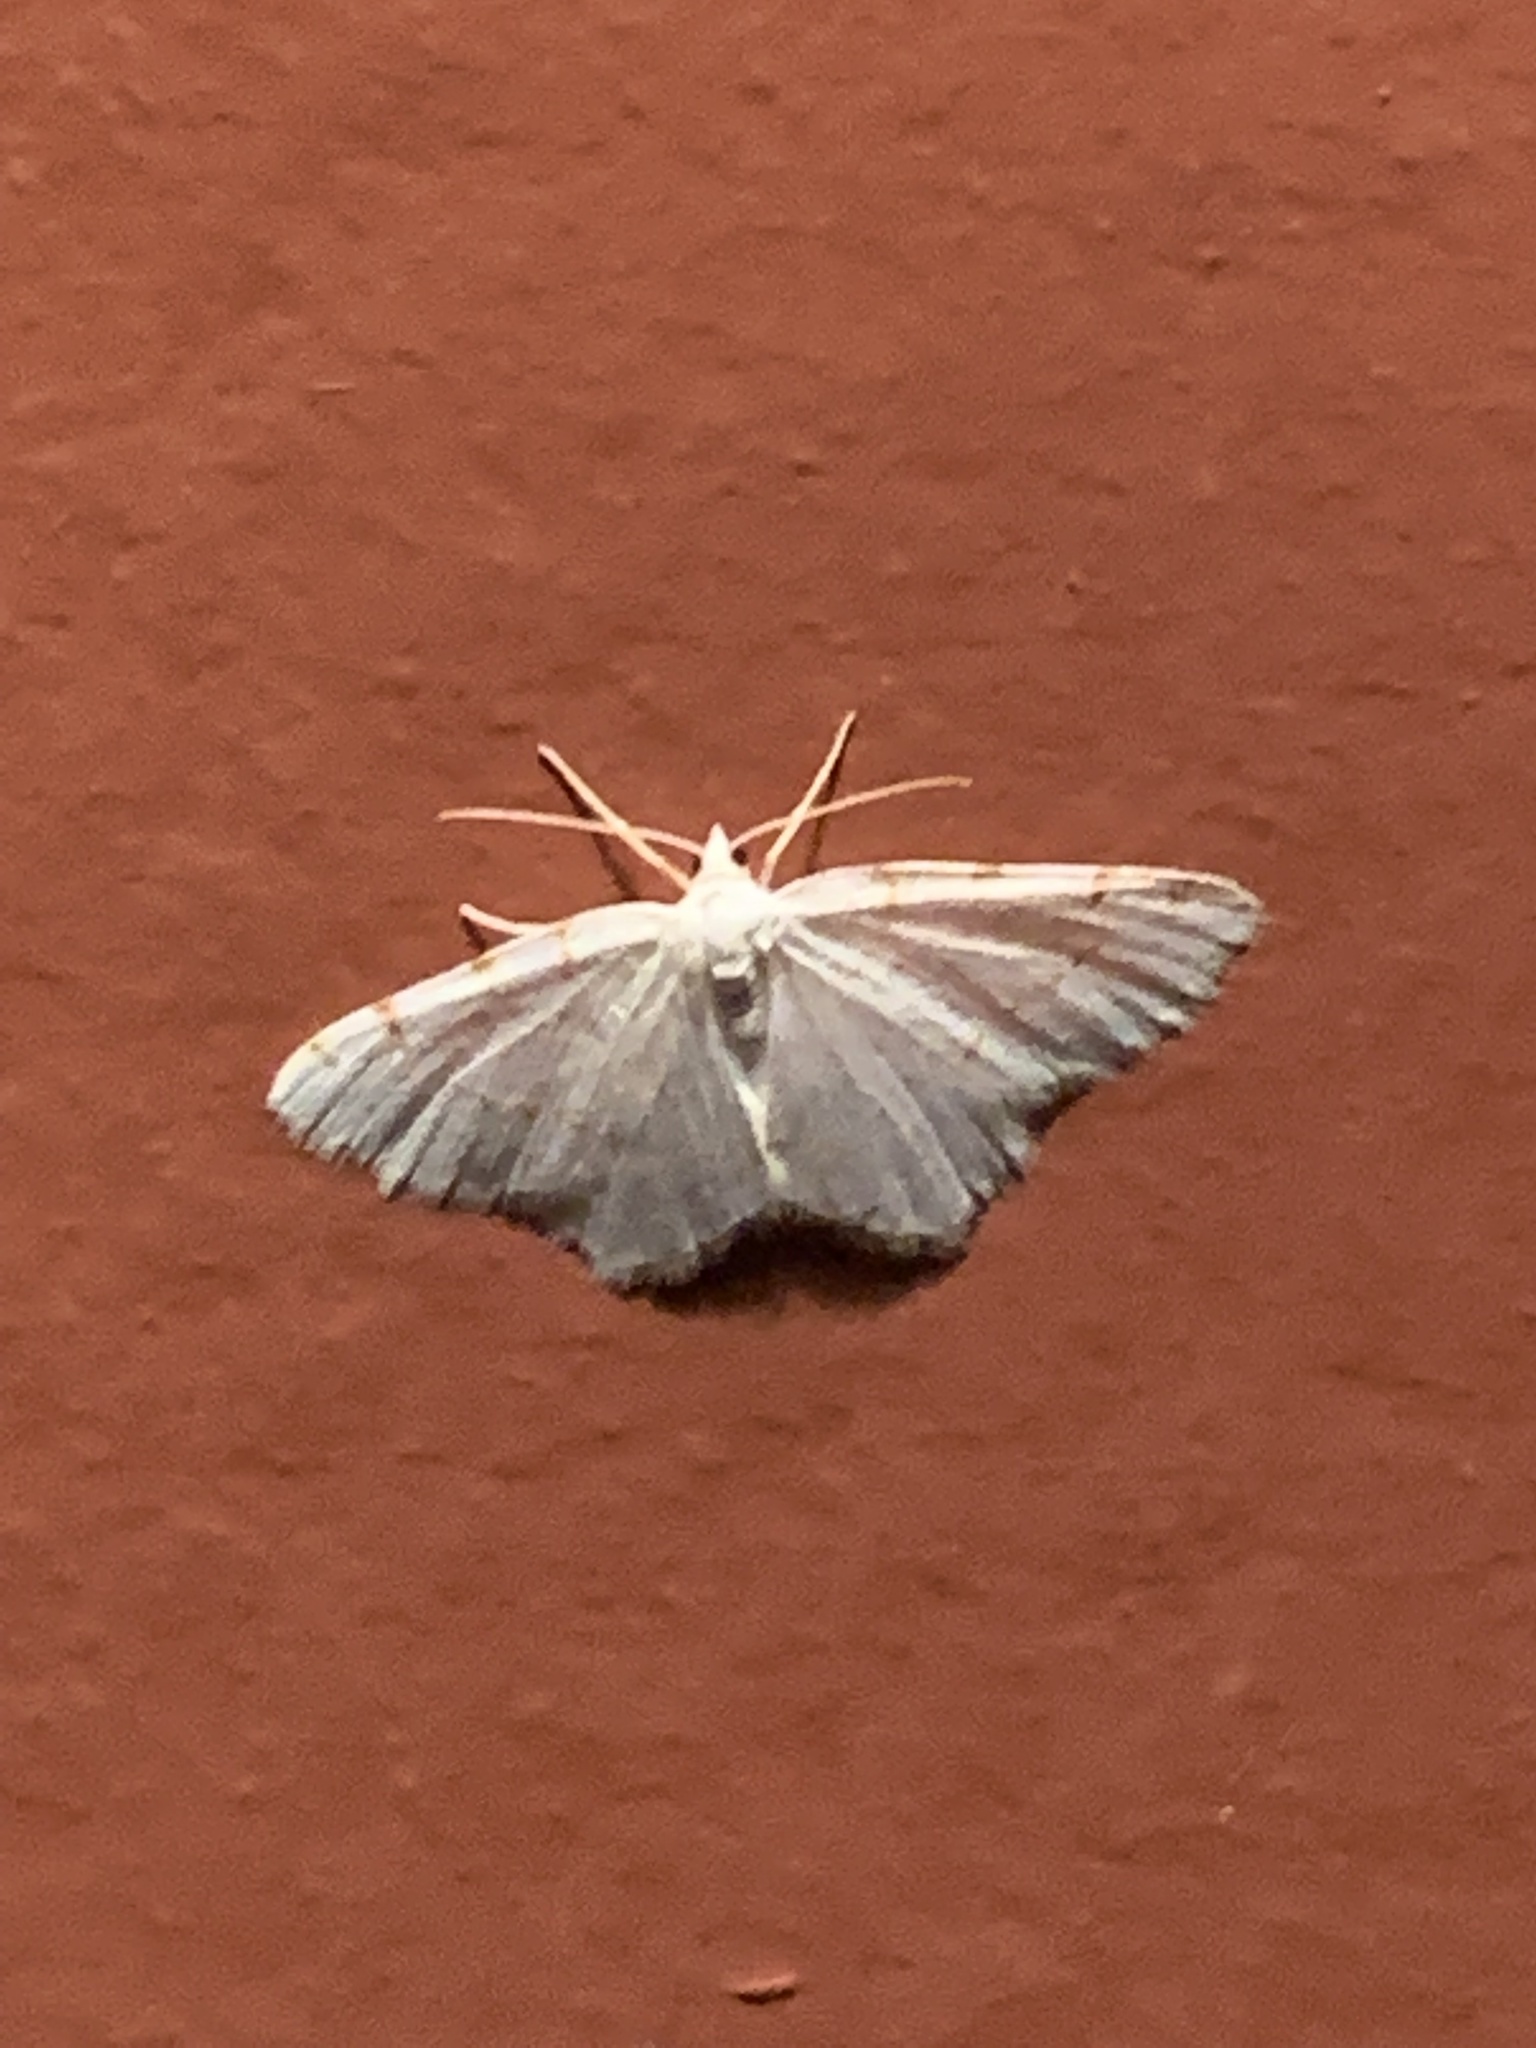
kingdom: Animalia
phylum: Arthropoda
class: Insecta
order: Lepidoptera
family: Geometridae
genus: Macaria
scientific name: Macaria pustularia
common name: Lesser maple spanworm moth
